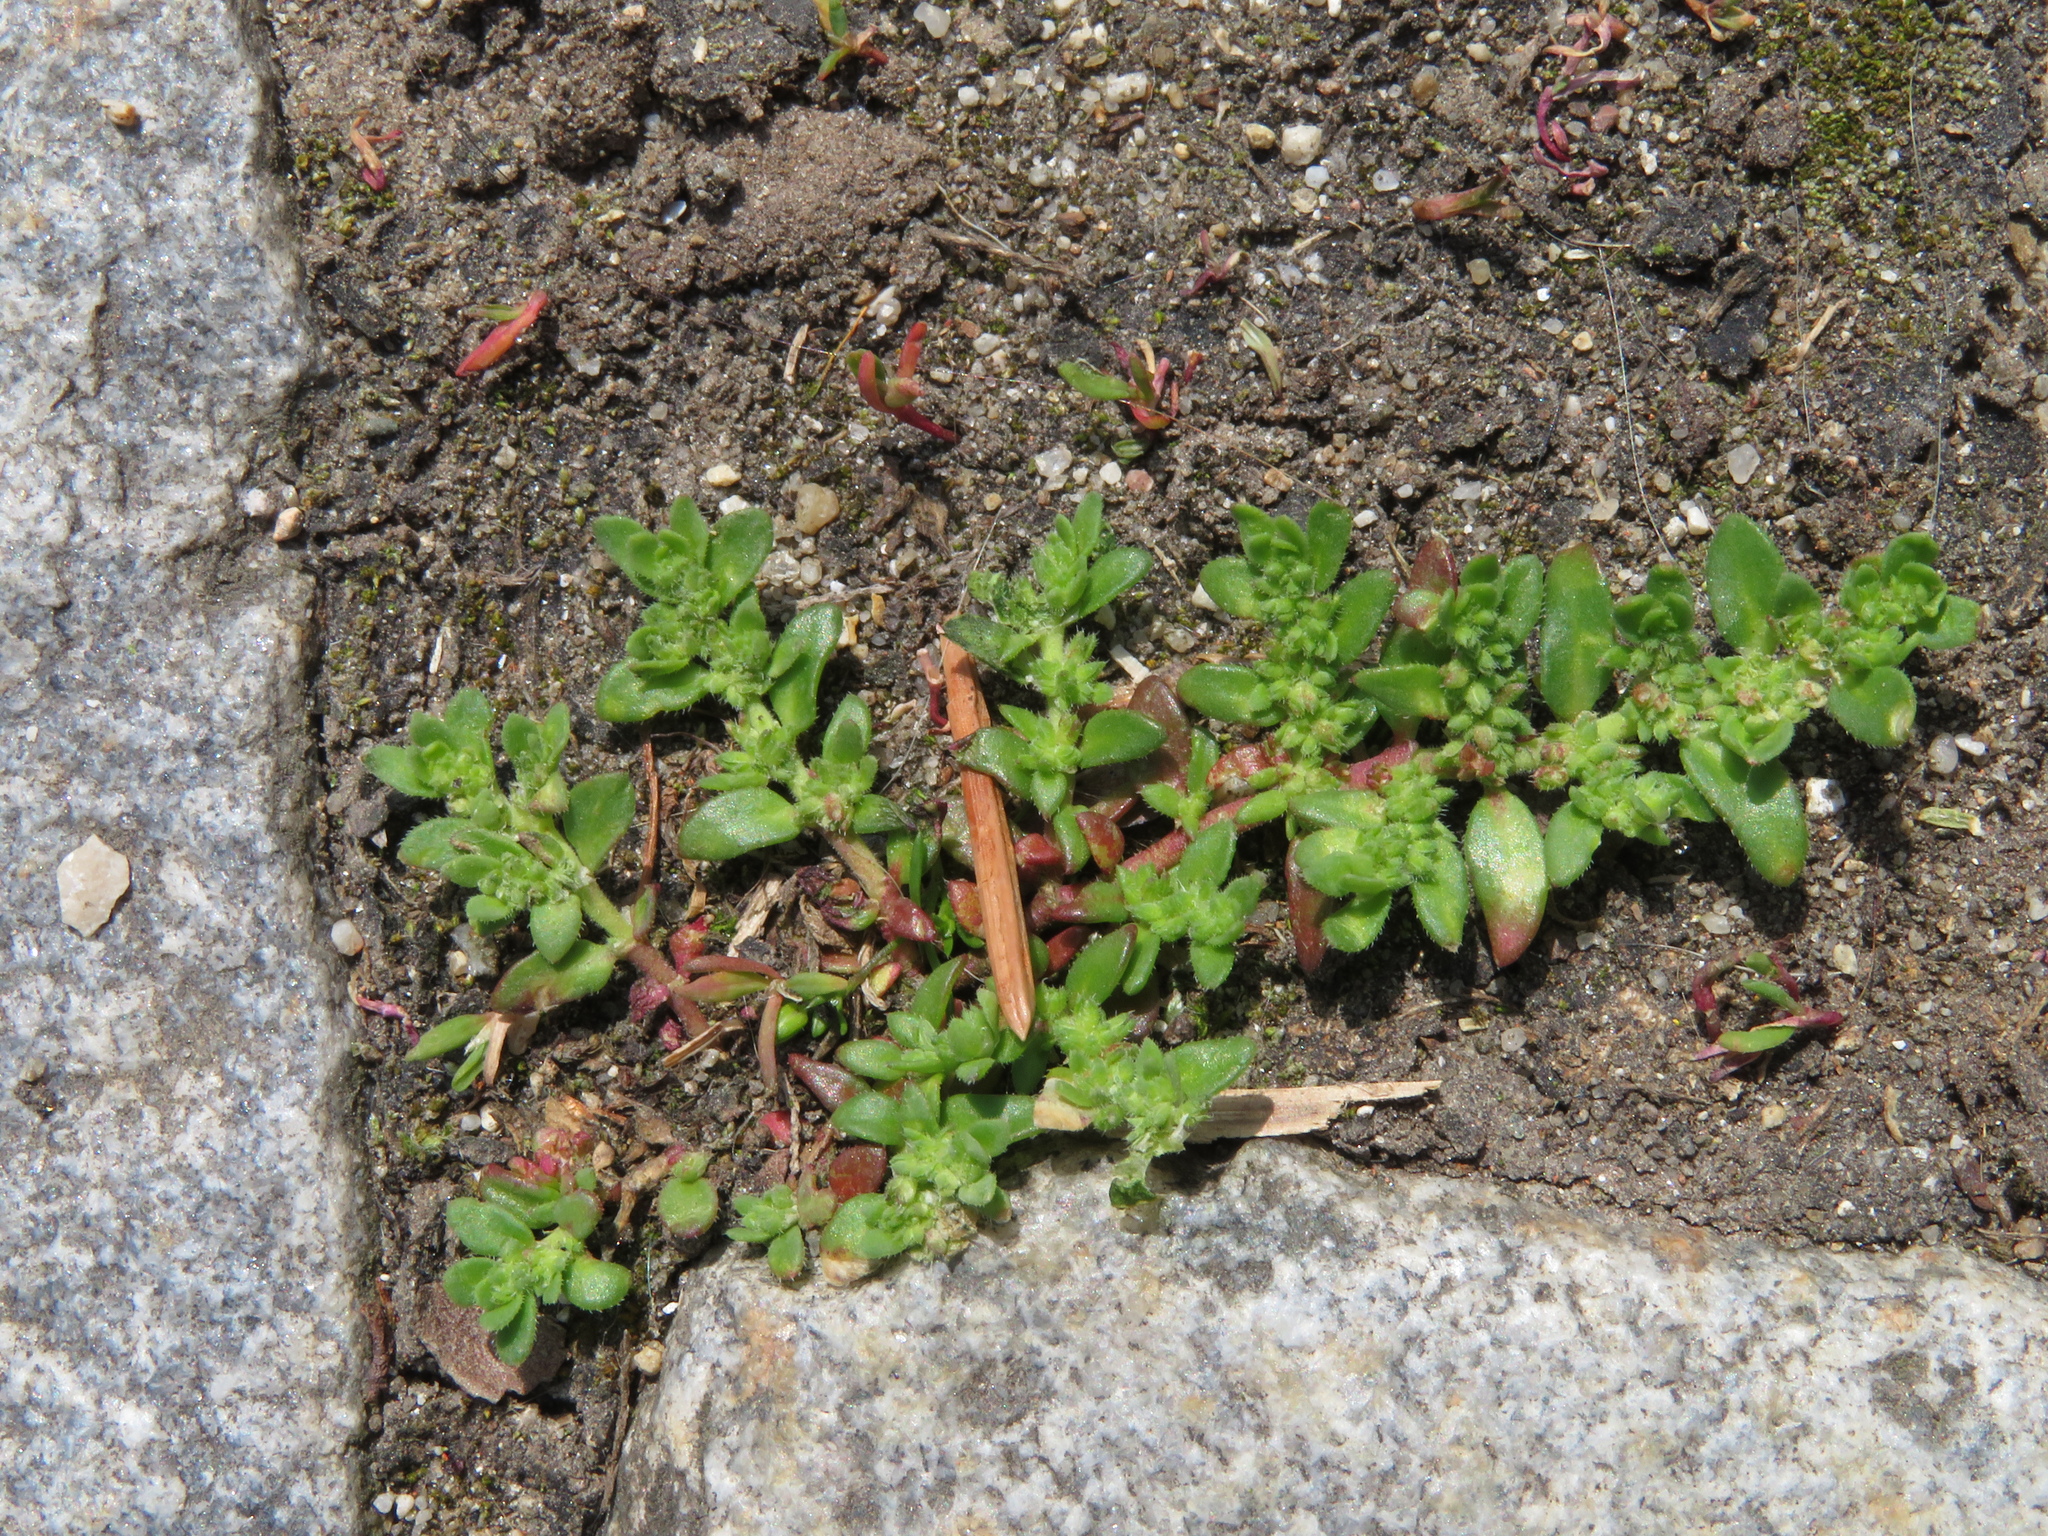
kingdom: Plantae
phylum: Tracheophyta
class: Magnoliopsida
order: Caryophyllales
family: Caryophyllaceae
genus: Herniaria
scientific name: Herniaria hirsuta
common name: Hairy rupturewort
